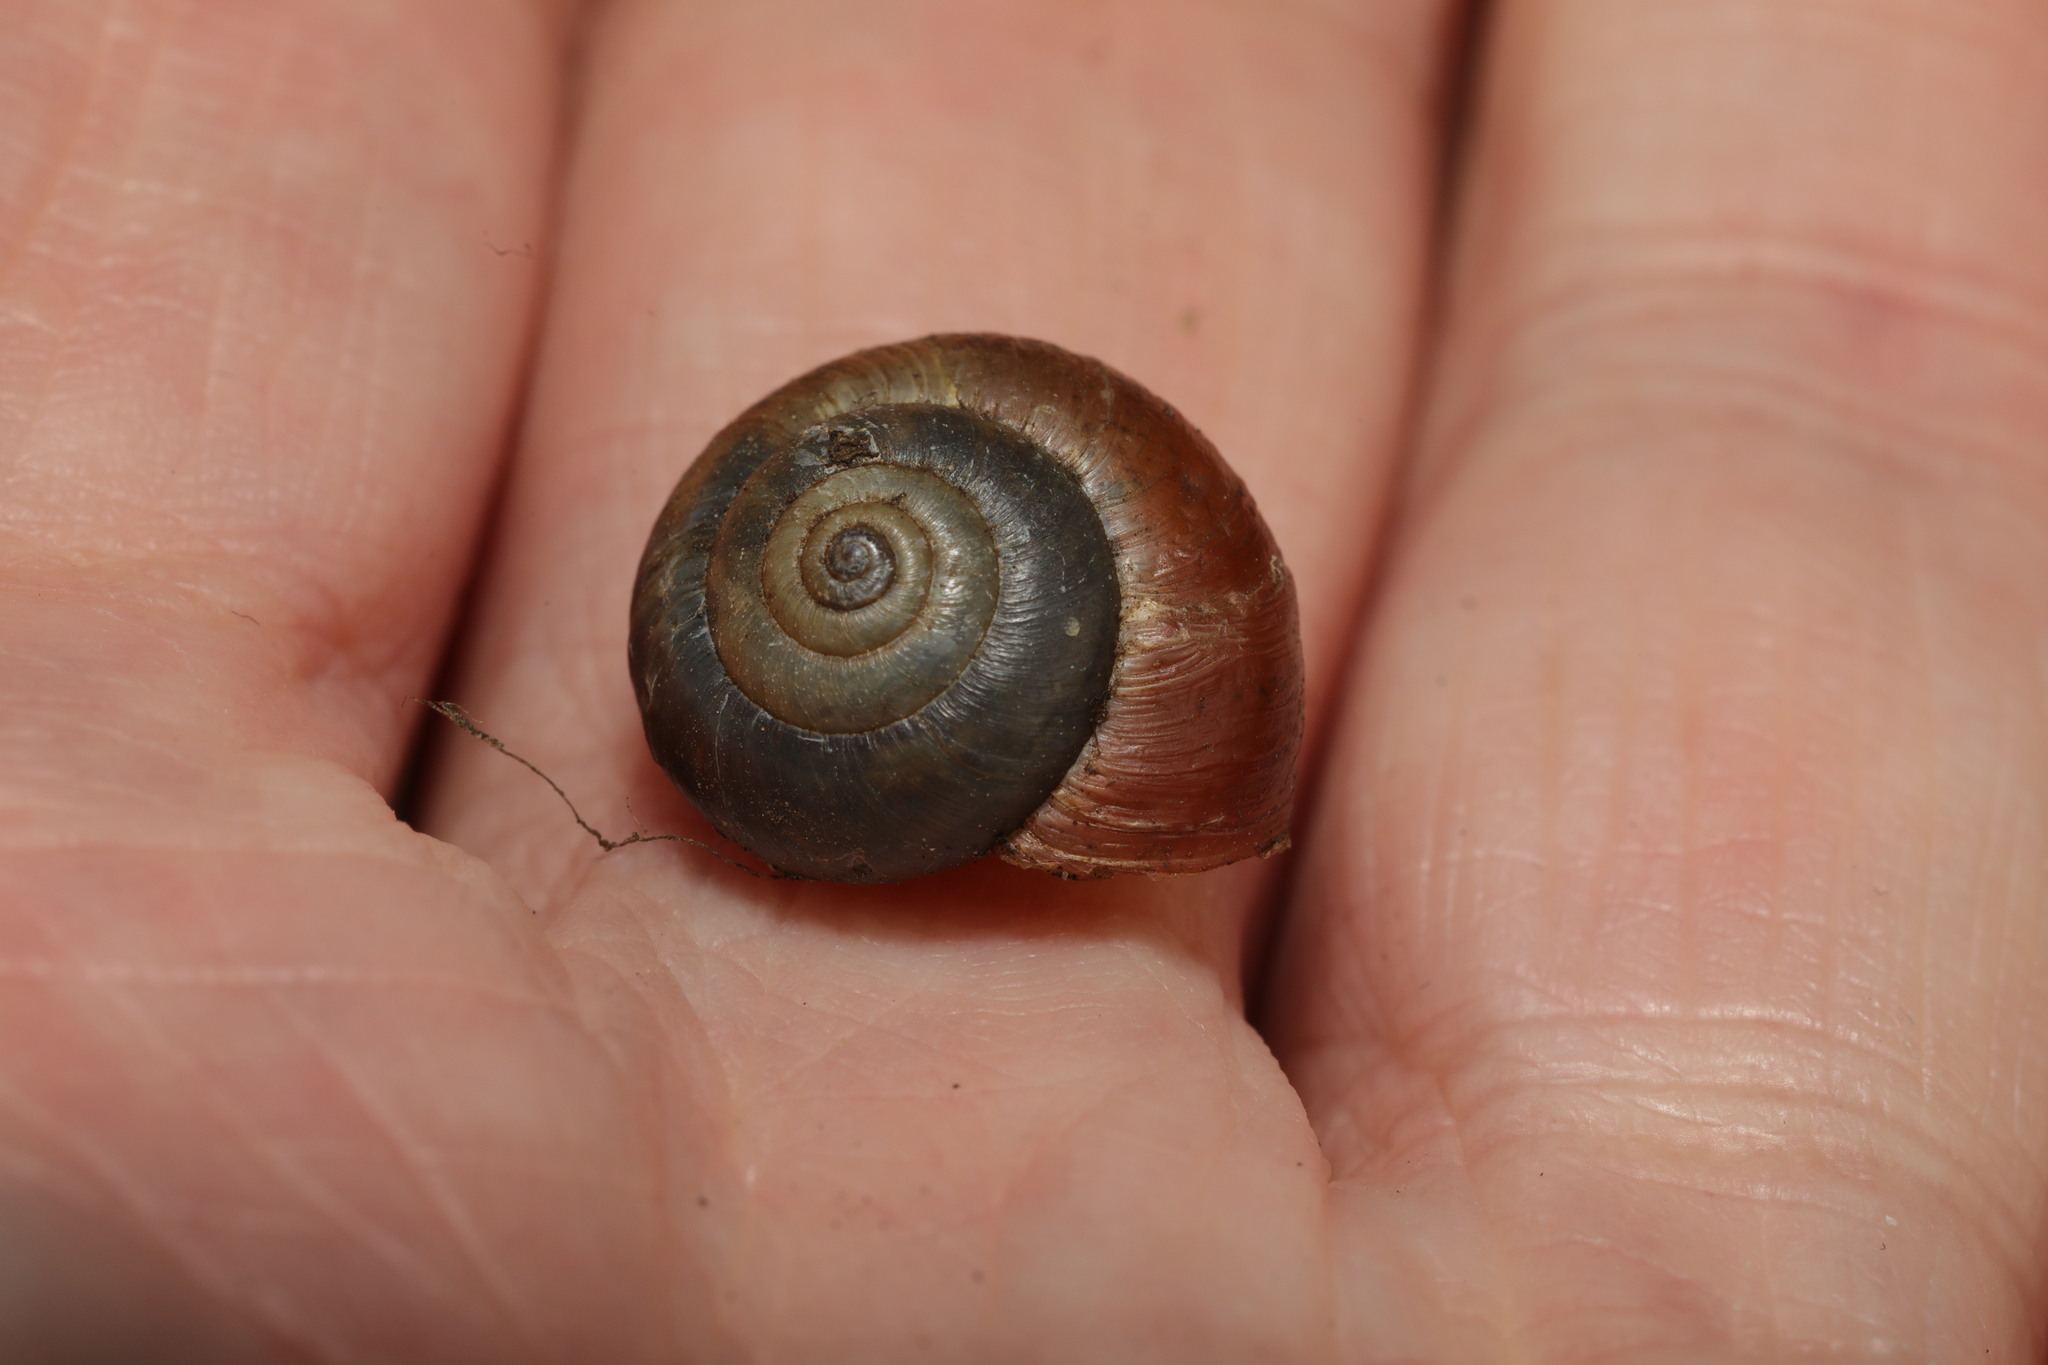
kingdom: Animalia
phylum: Mollusca
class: Gastropoda
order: Stylommatophora
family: Hygromiidae
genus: Monacha
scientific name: Monacha cantiana
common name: Kentish snail
